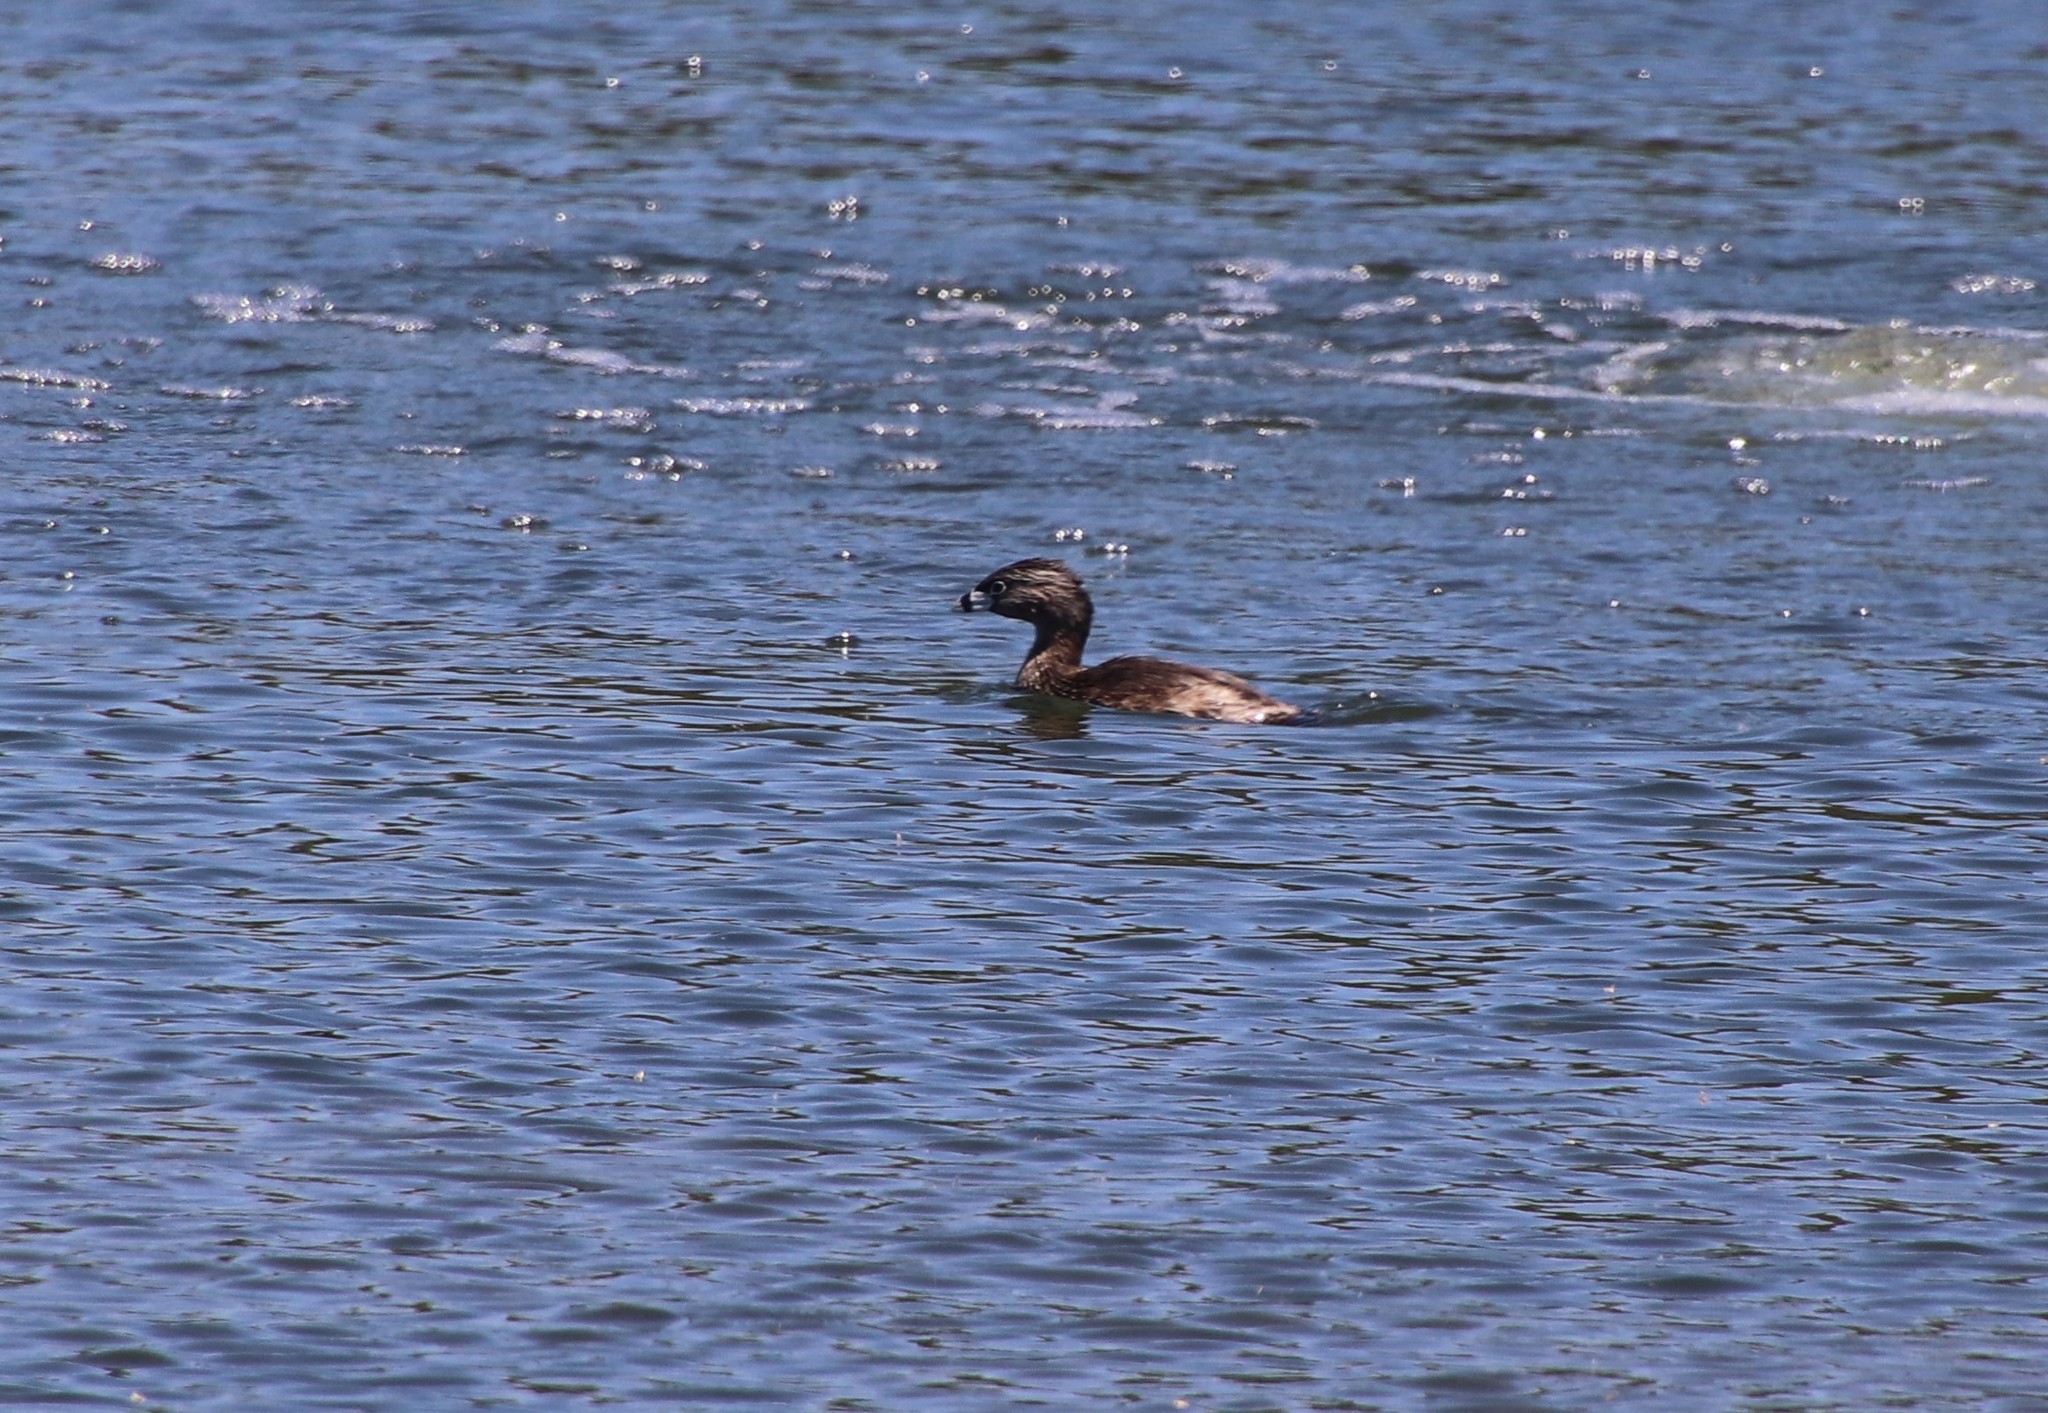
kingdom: Animalia
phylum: Chordata
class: Aves
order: Podicipediformes
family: Podicipedidae
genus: Podilymbus
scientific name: Podilymbus podiceps
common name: Pied-billed grebe
